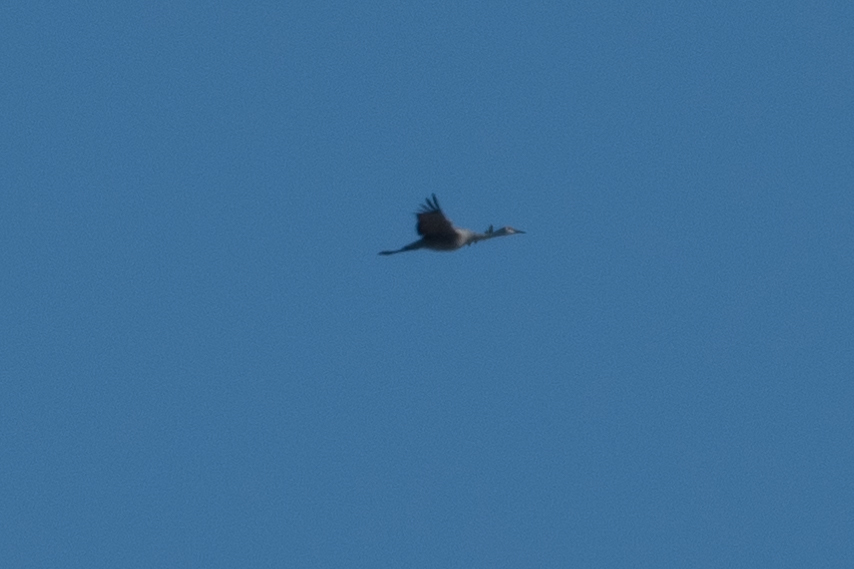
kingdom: Animalia
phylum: Chordata
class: Aves
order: Gruiformes
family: Gruidae
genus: Grus
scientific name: Grus canadensis
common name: Sandhill crane
